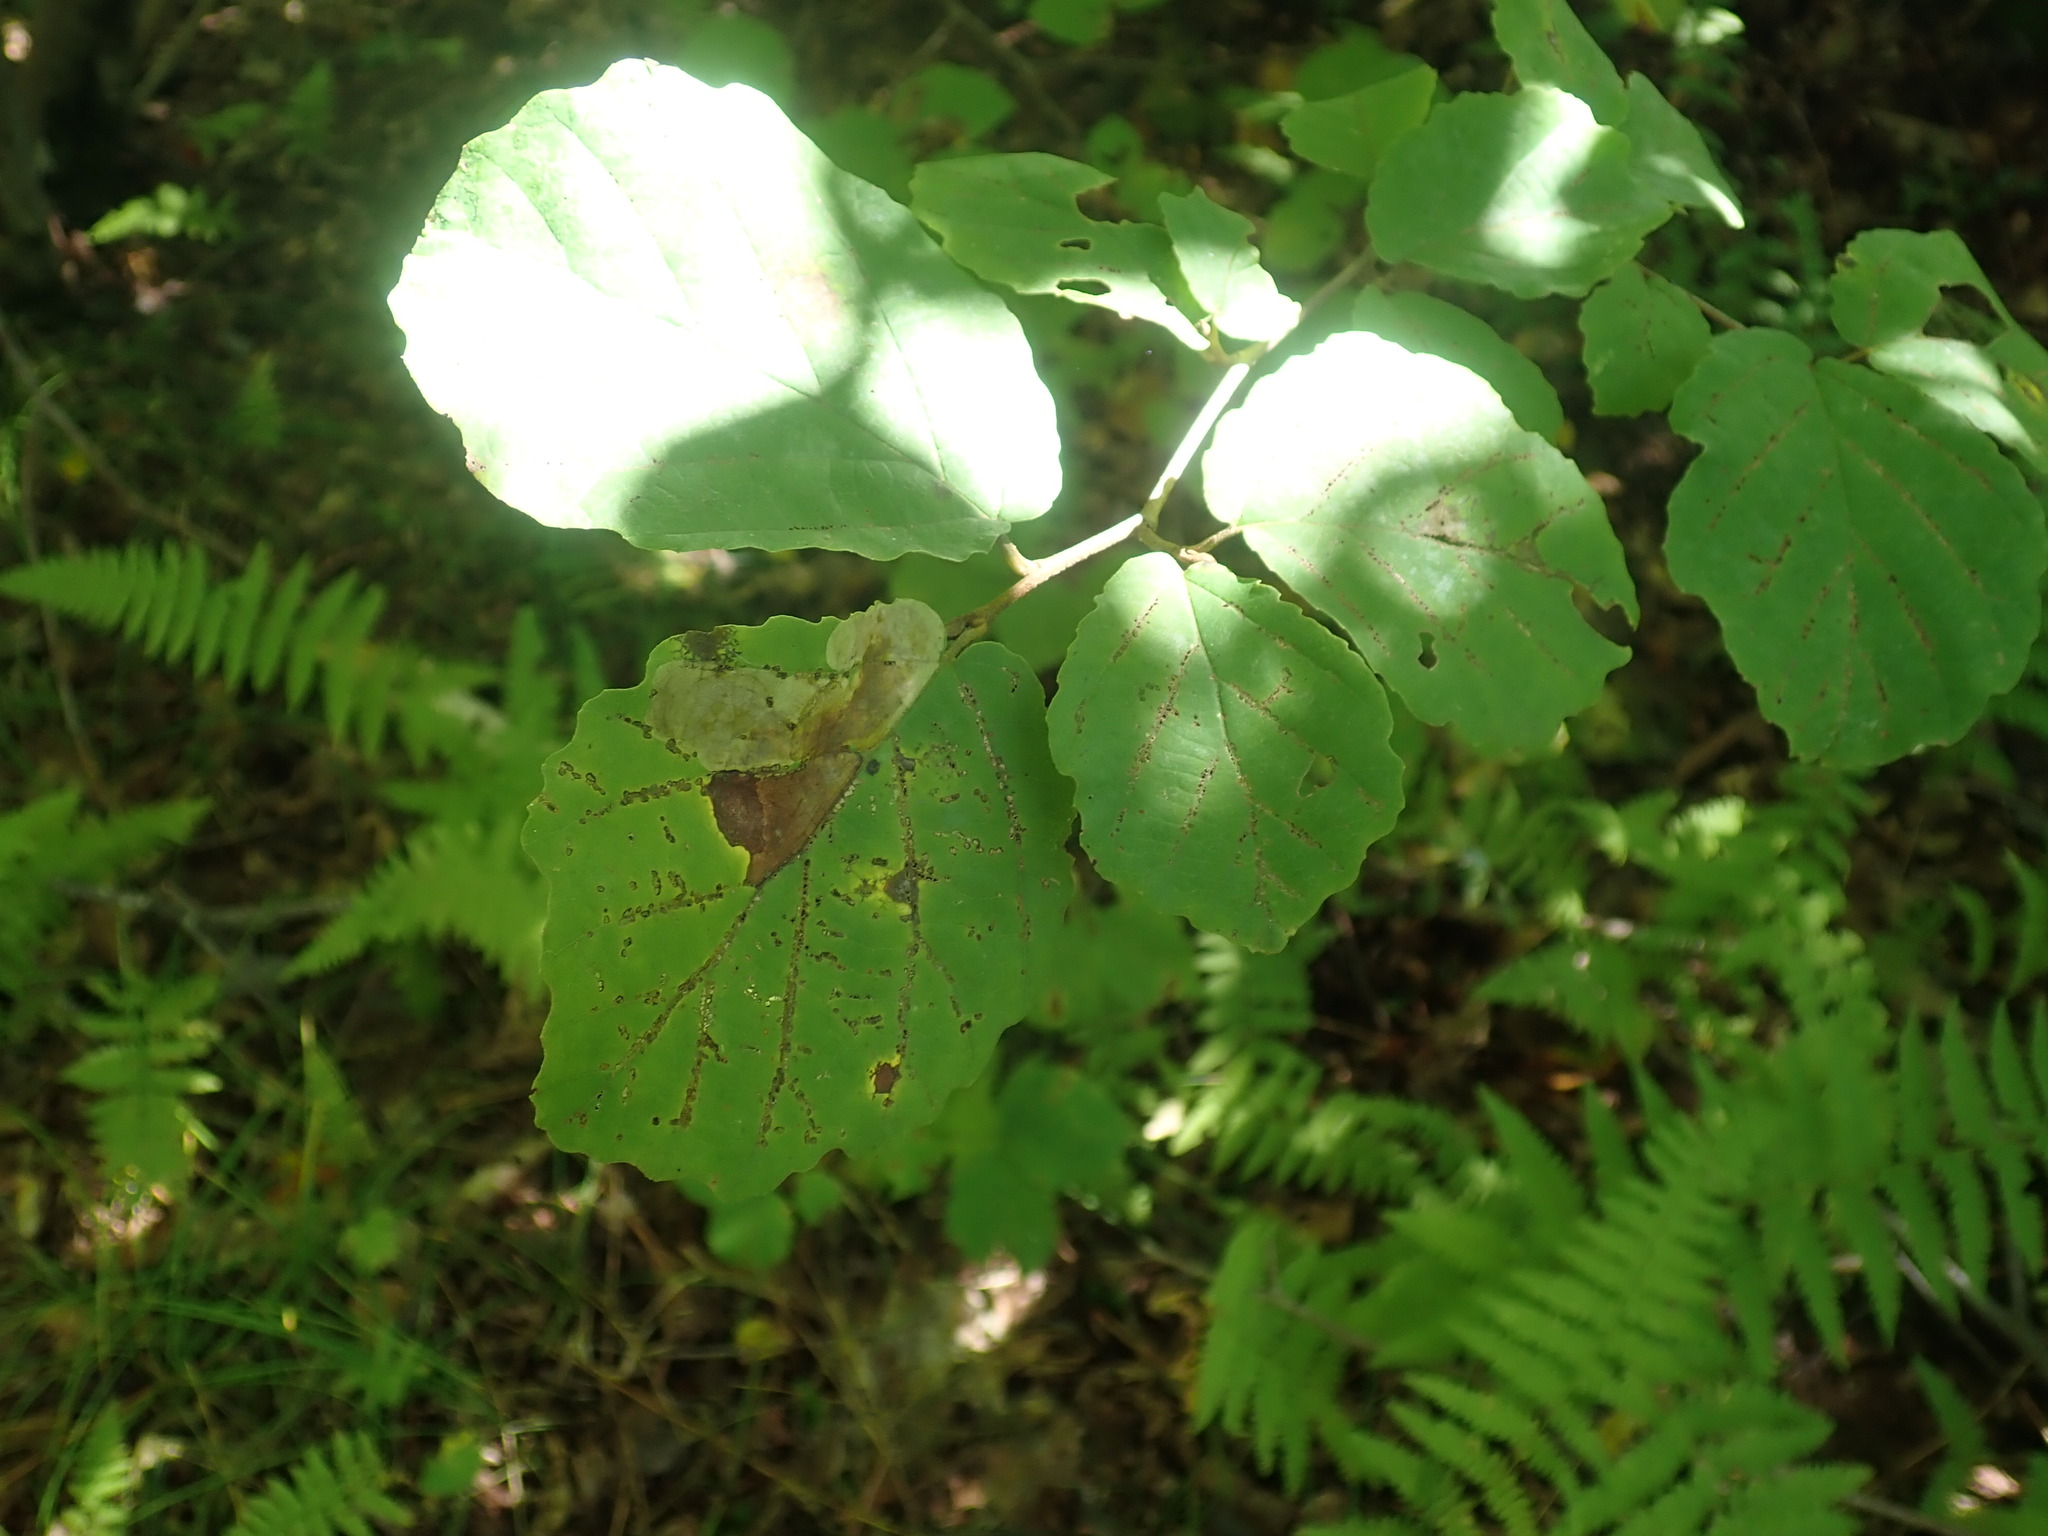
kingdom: Plantae
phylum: Tracheophyta
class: Magnoliopsida
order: Saxifragales
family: Hamamelidaceae
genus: Hamamelis
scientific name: Hamamelis virginiana
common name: Witch-hazel
